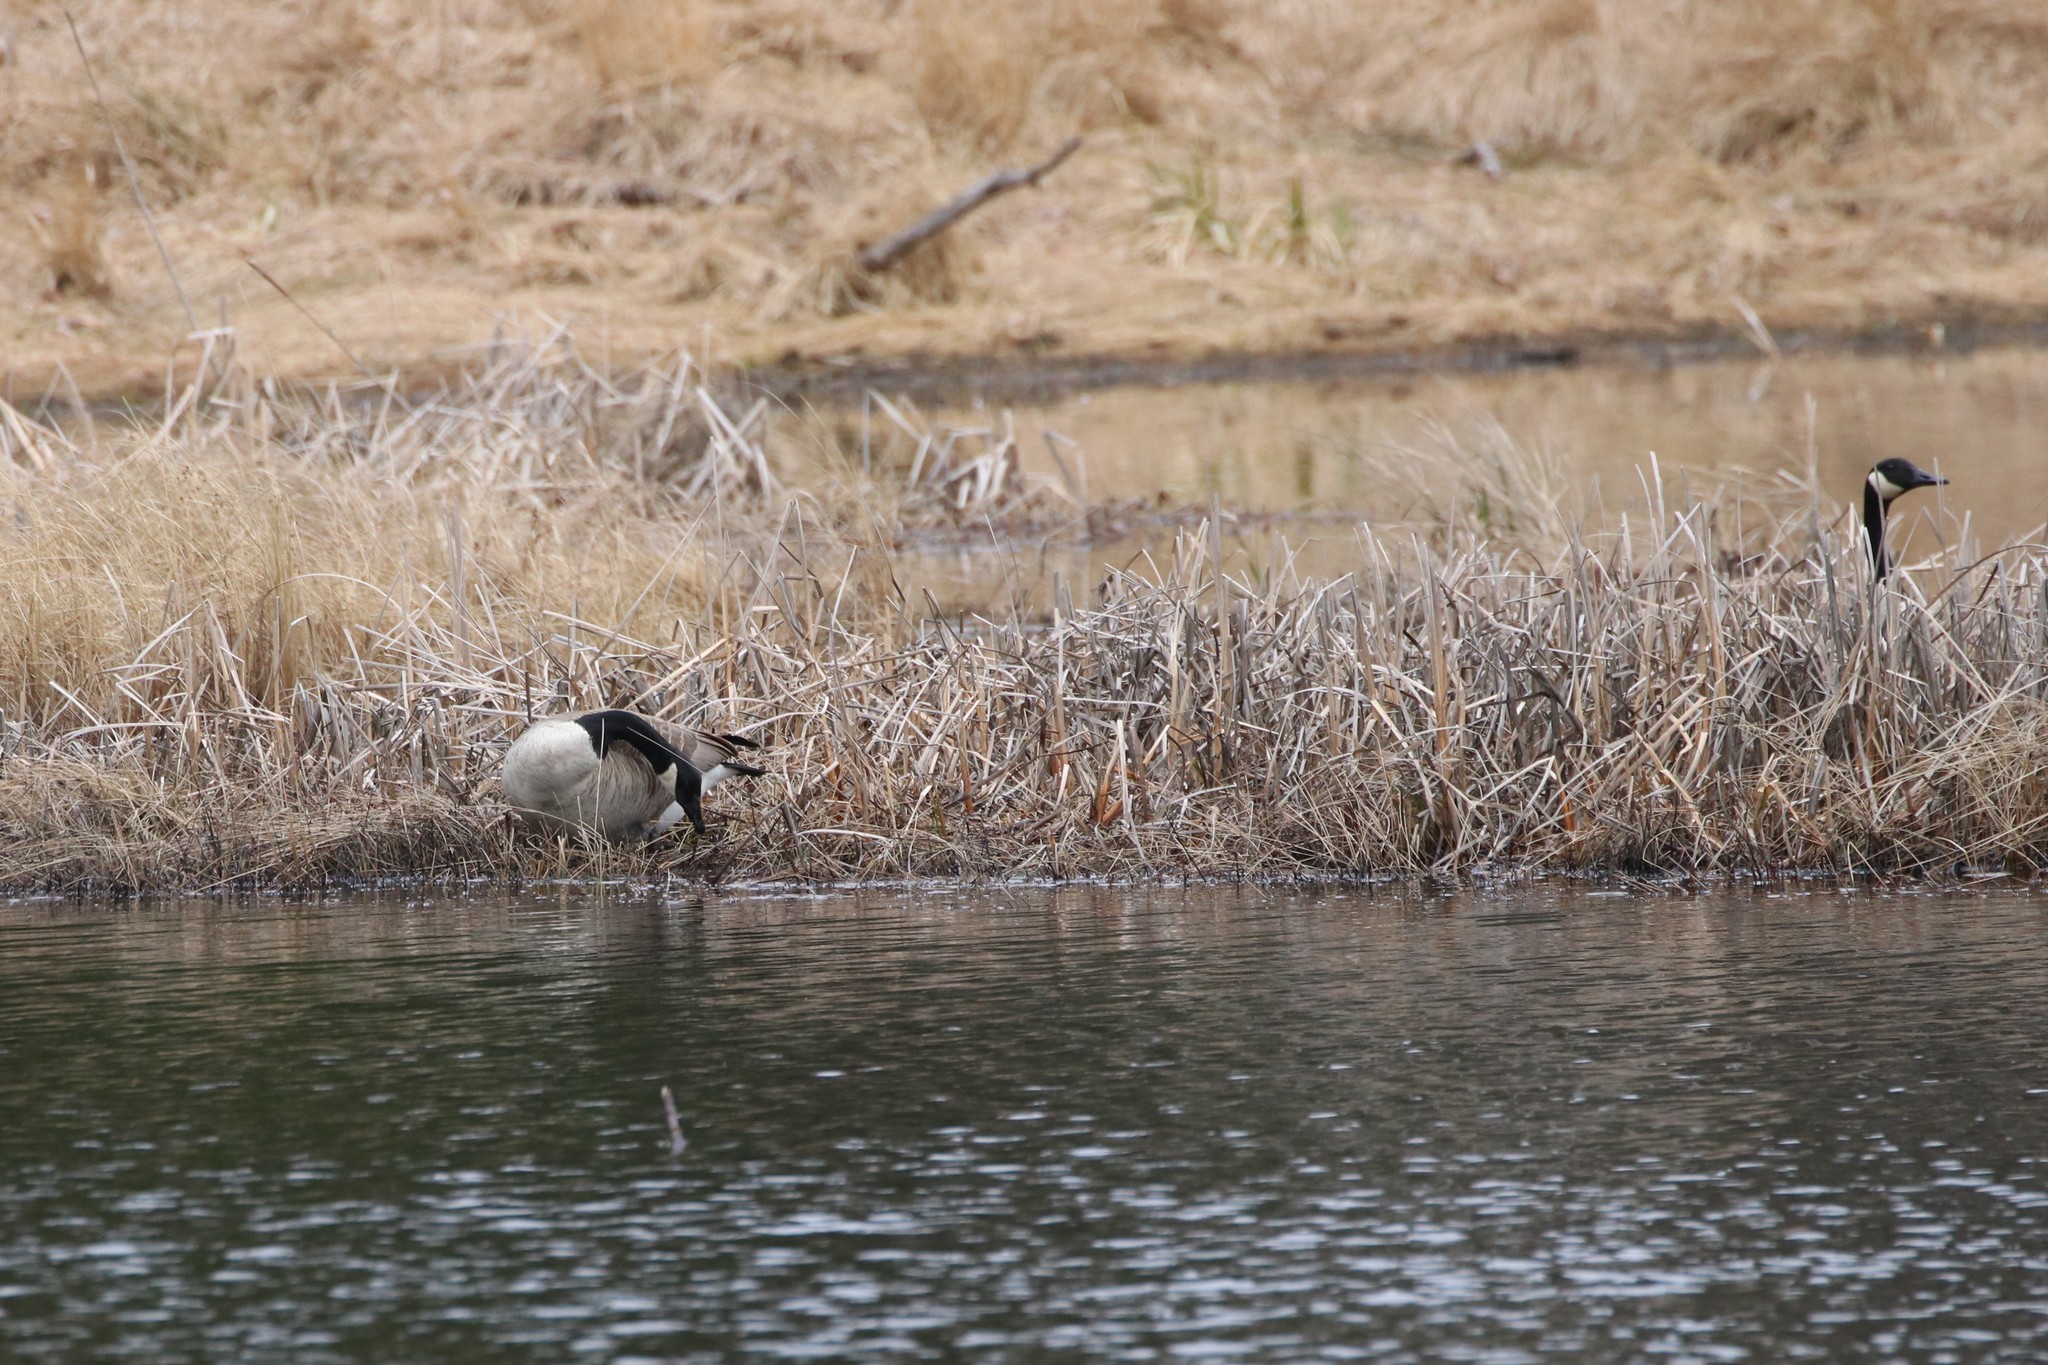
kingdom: Animalia
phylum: Chordata
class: Aves
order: Anseriformes
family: Anatidae
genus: Branta
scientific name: Branta canadensis
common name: Canada goose
